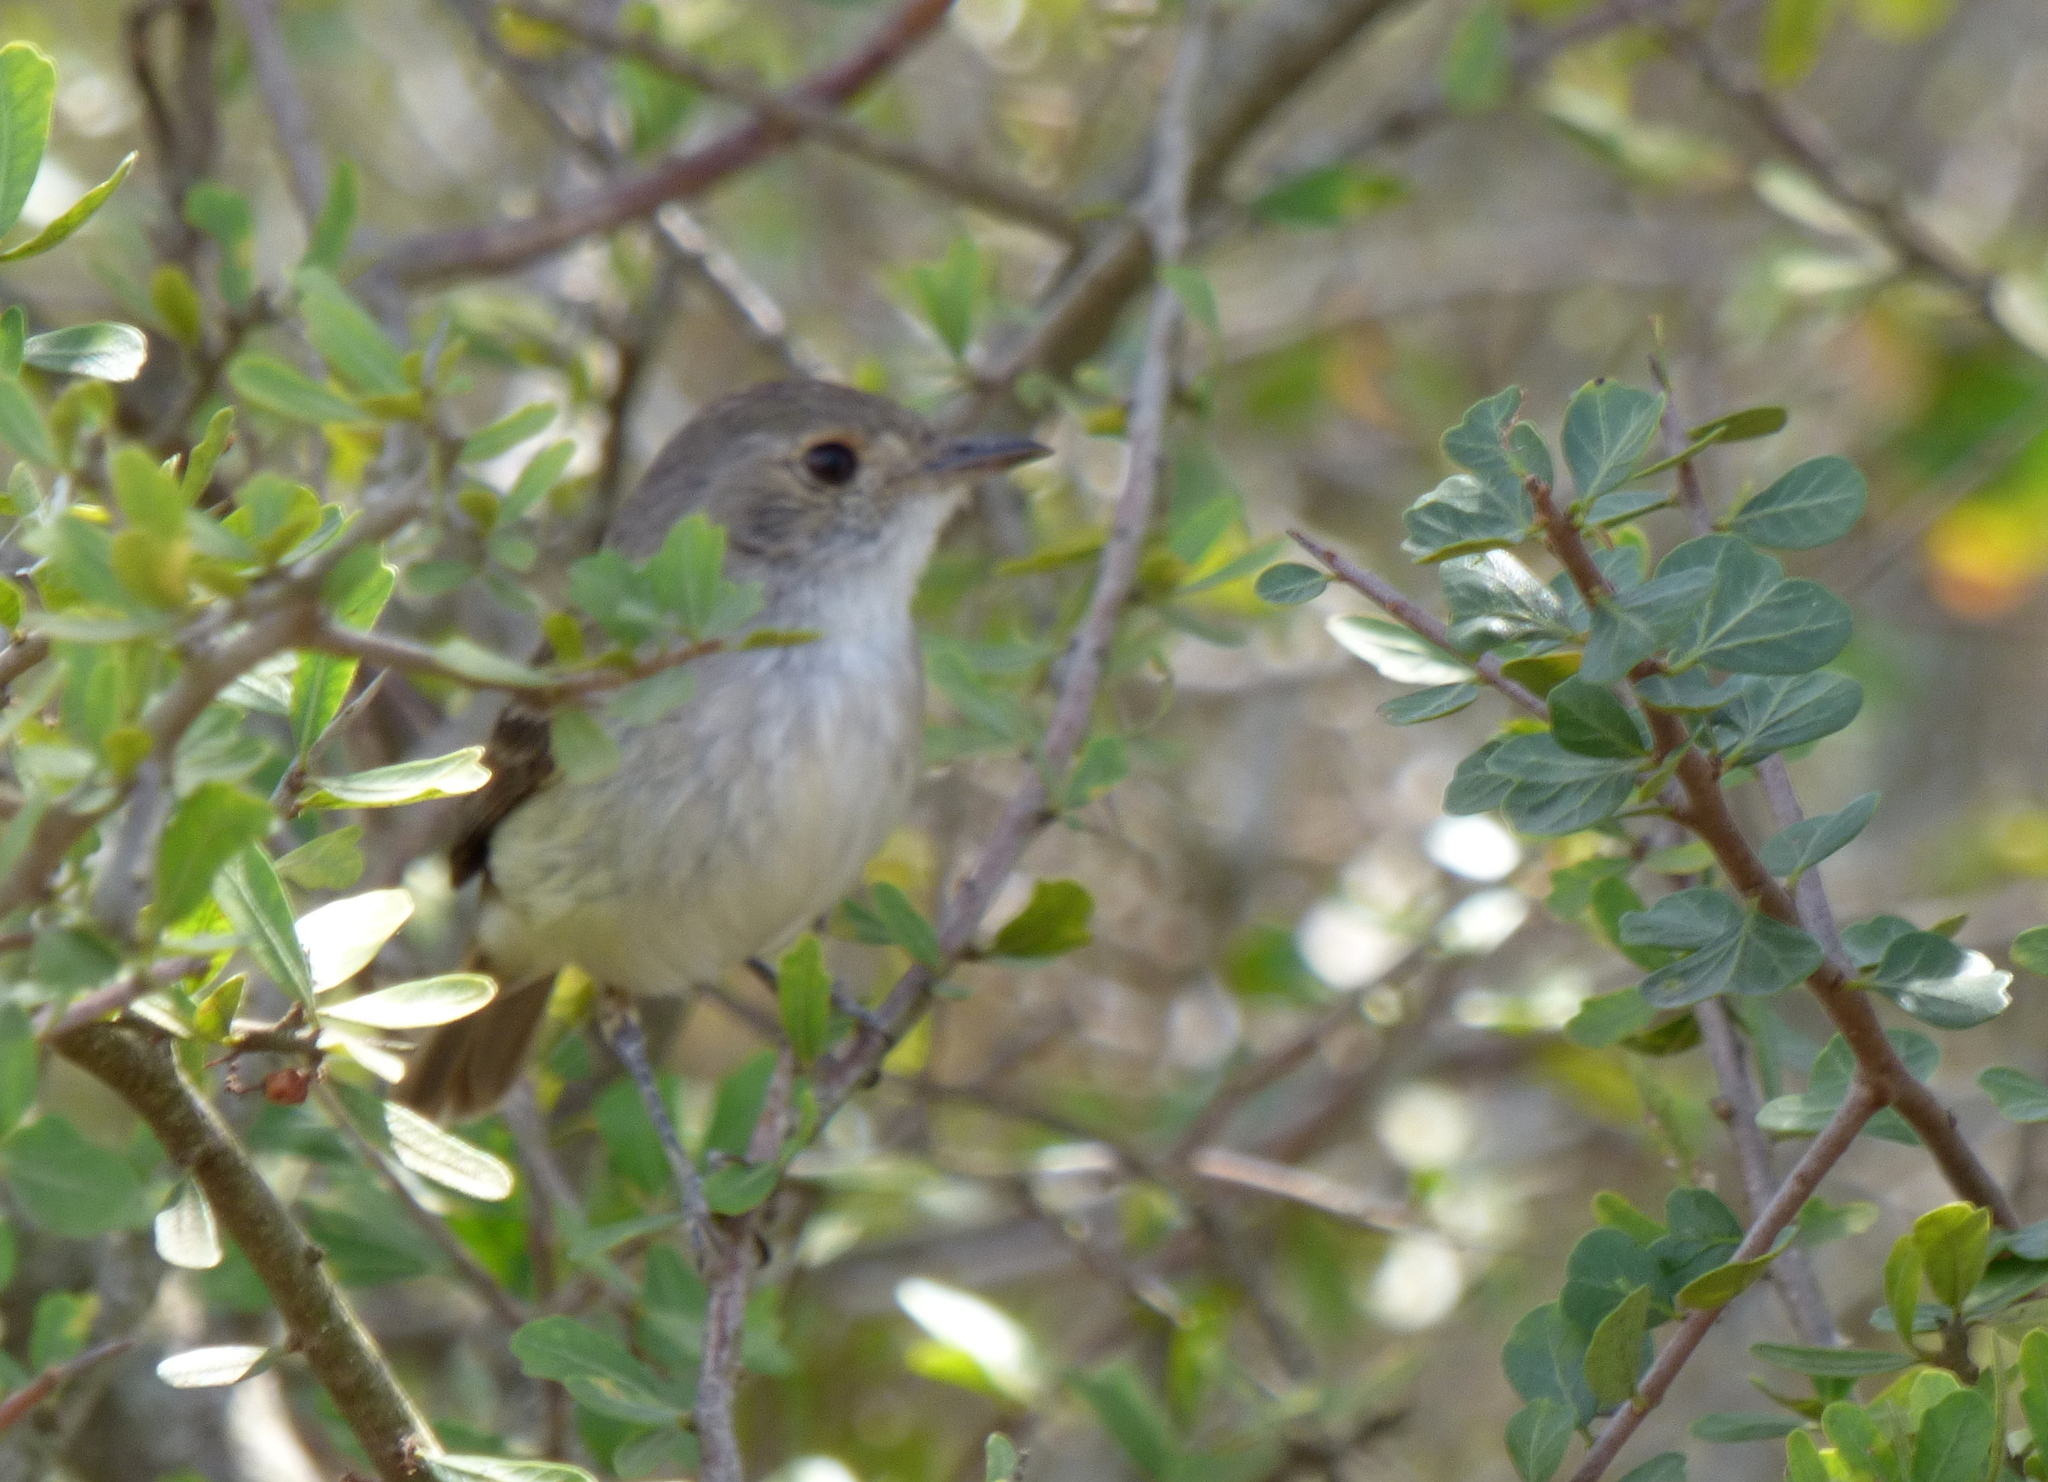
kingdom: Animalia
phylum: Chordata
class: Aves
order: Passeriformes
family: Tyrannidae
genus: Euscarthmus
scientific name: Euscarthmus meloryphus
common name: Tawny-crowned pygmy tyrant
